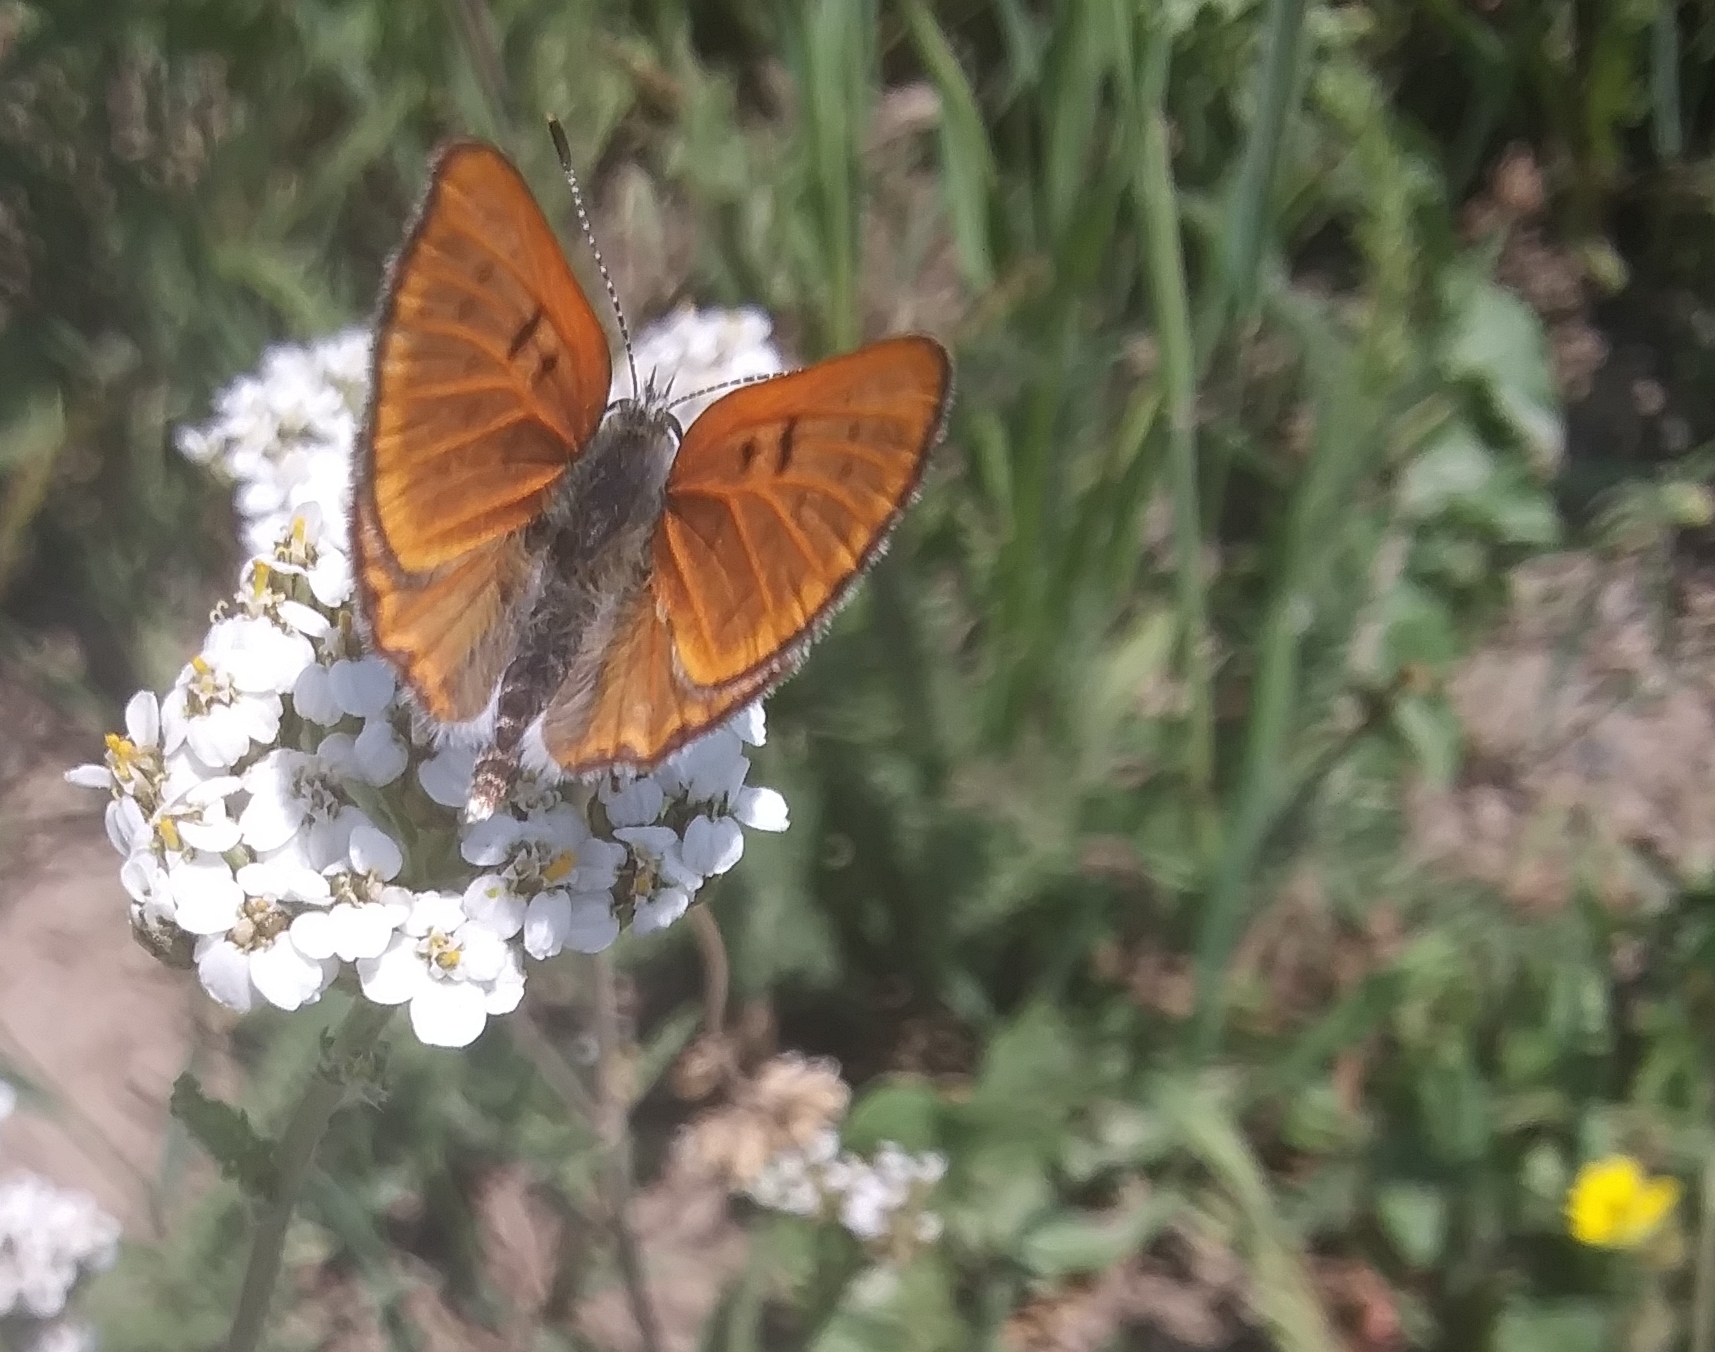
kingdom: Animalia
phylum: Arthropoda
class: Insecta
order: Lepidoptera
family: Lycaenidae
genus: Tharsalea
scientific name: Tharsalea rubidus
